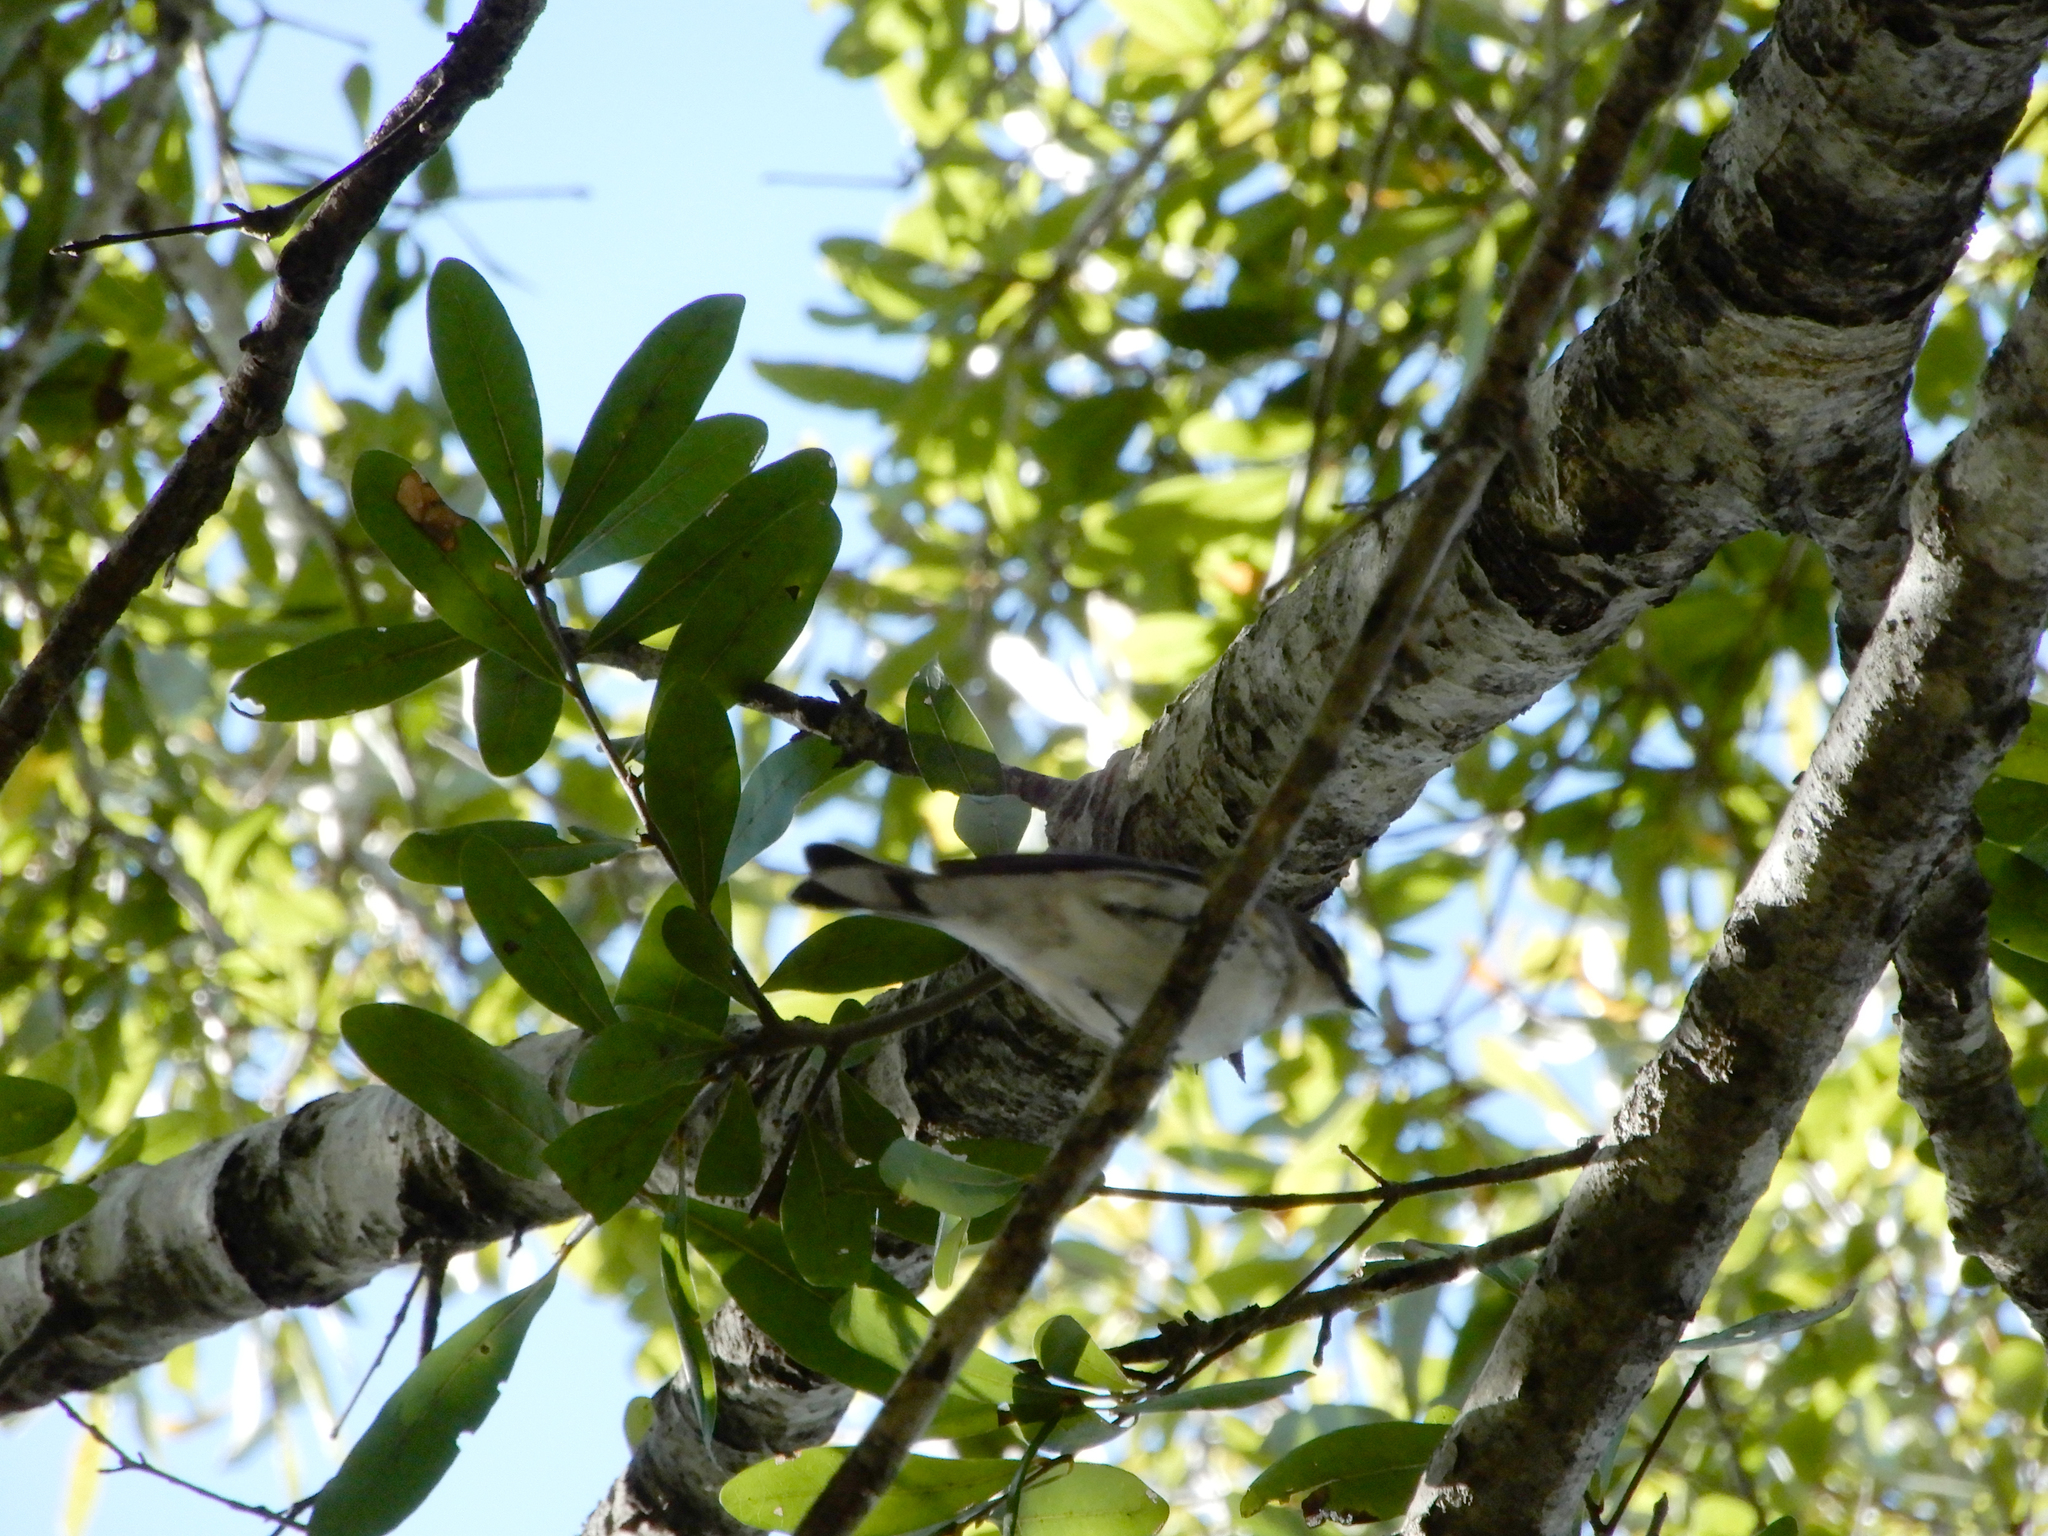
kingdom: Animalia
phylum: Chordata
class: Aves
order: Passeriformes
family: Parulidae
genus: Setophaga
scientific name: Setophaga coronata
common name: Myrtle warbler
